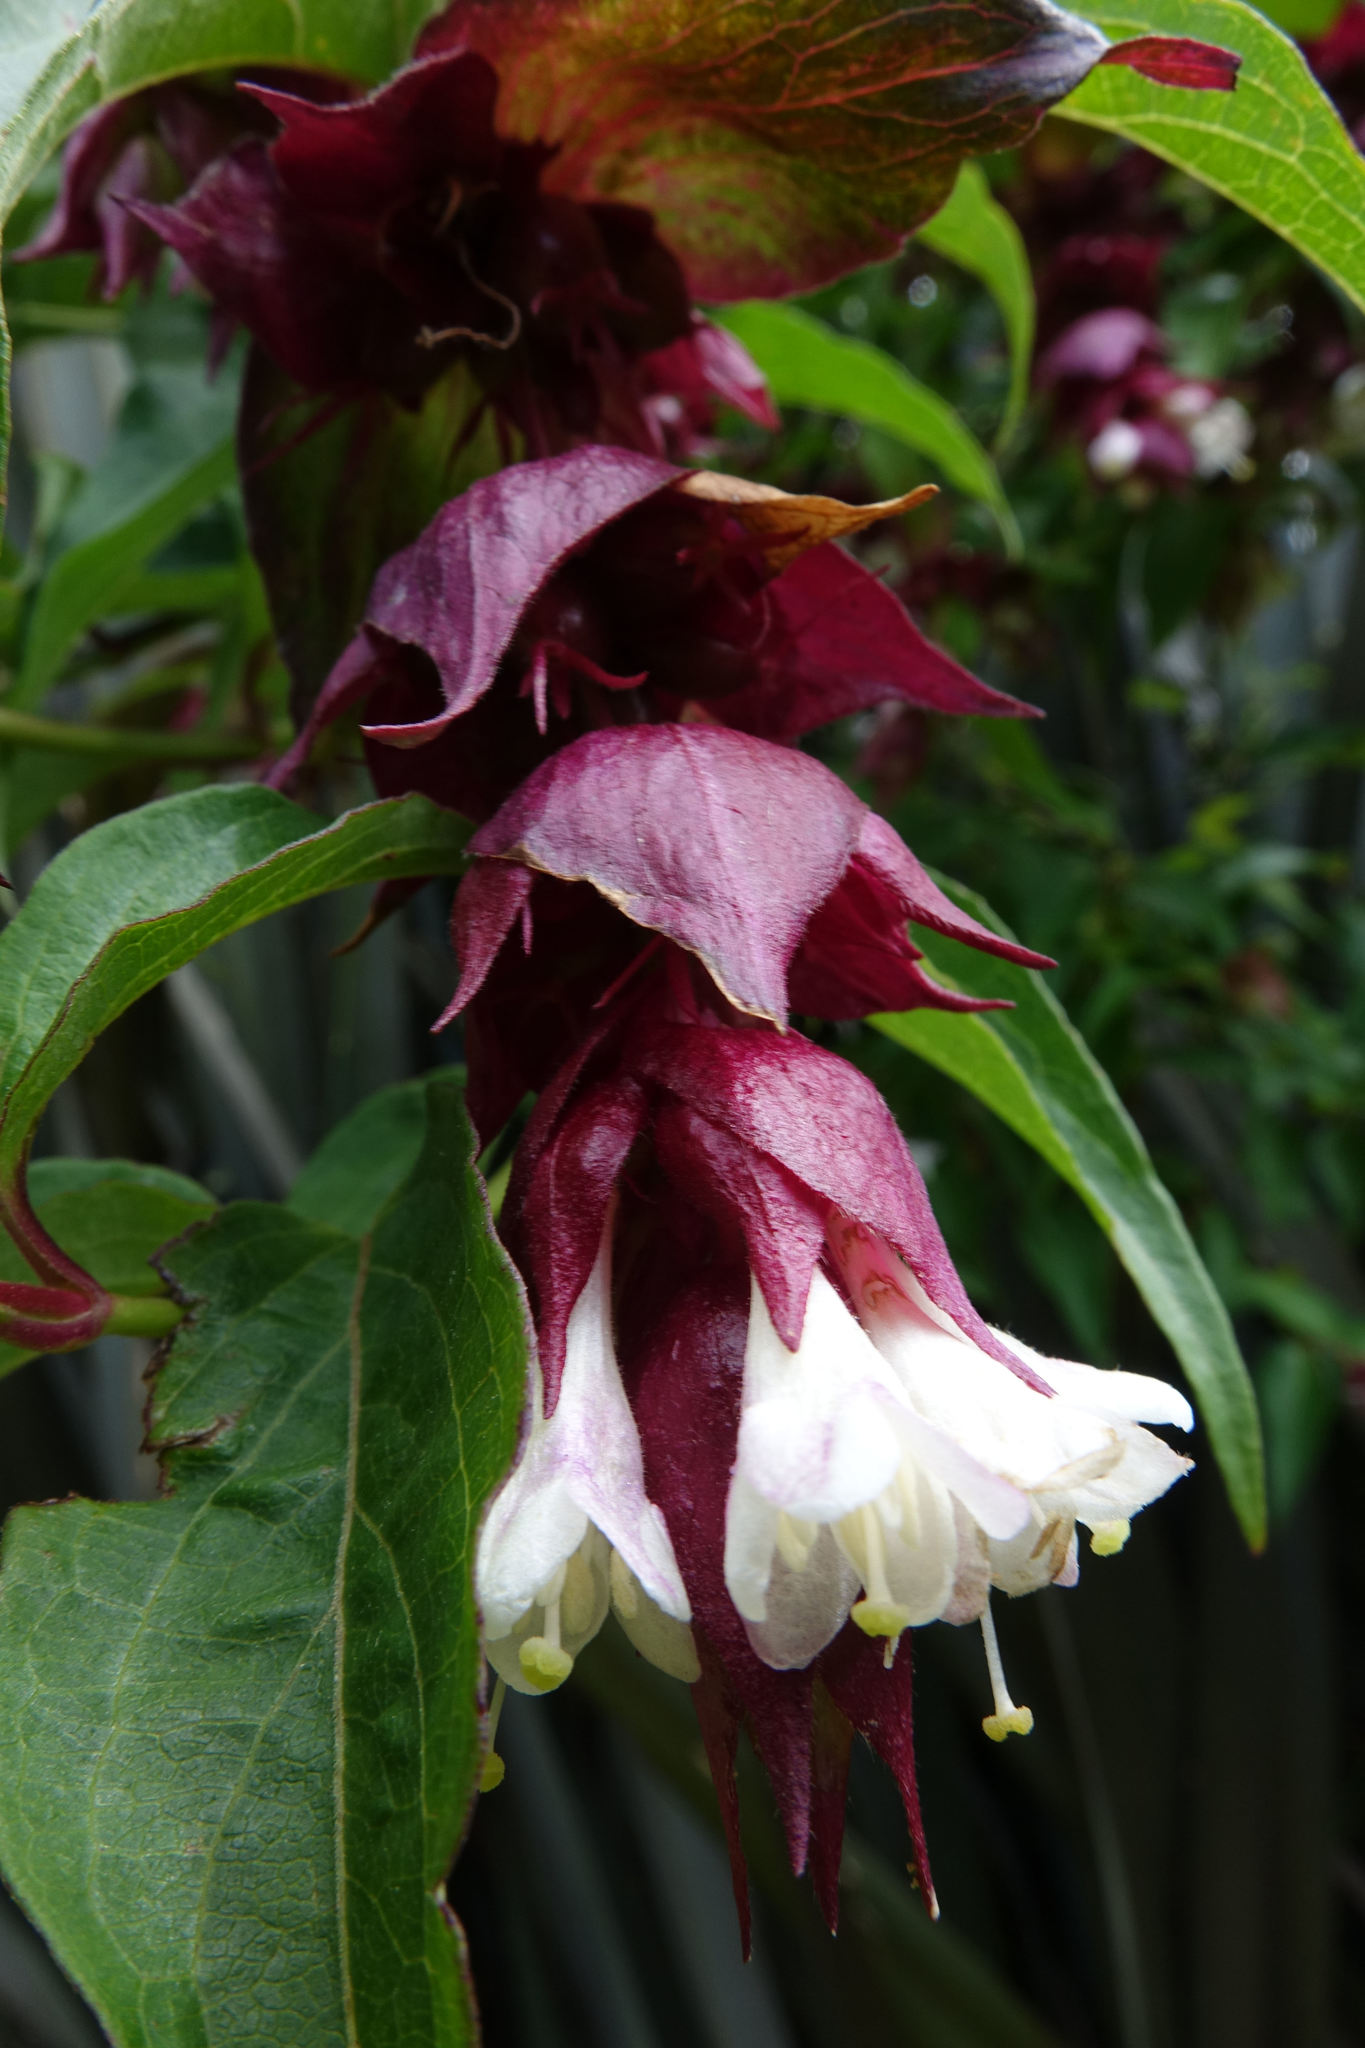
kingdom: Plantae
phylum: Tracheophyta
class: Magnoliopsida
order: Dipsacales
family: Caprifoliaceae
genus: Leycesteria
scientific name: Leycesteria formosa
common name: Himalayan honeysuckle
